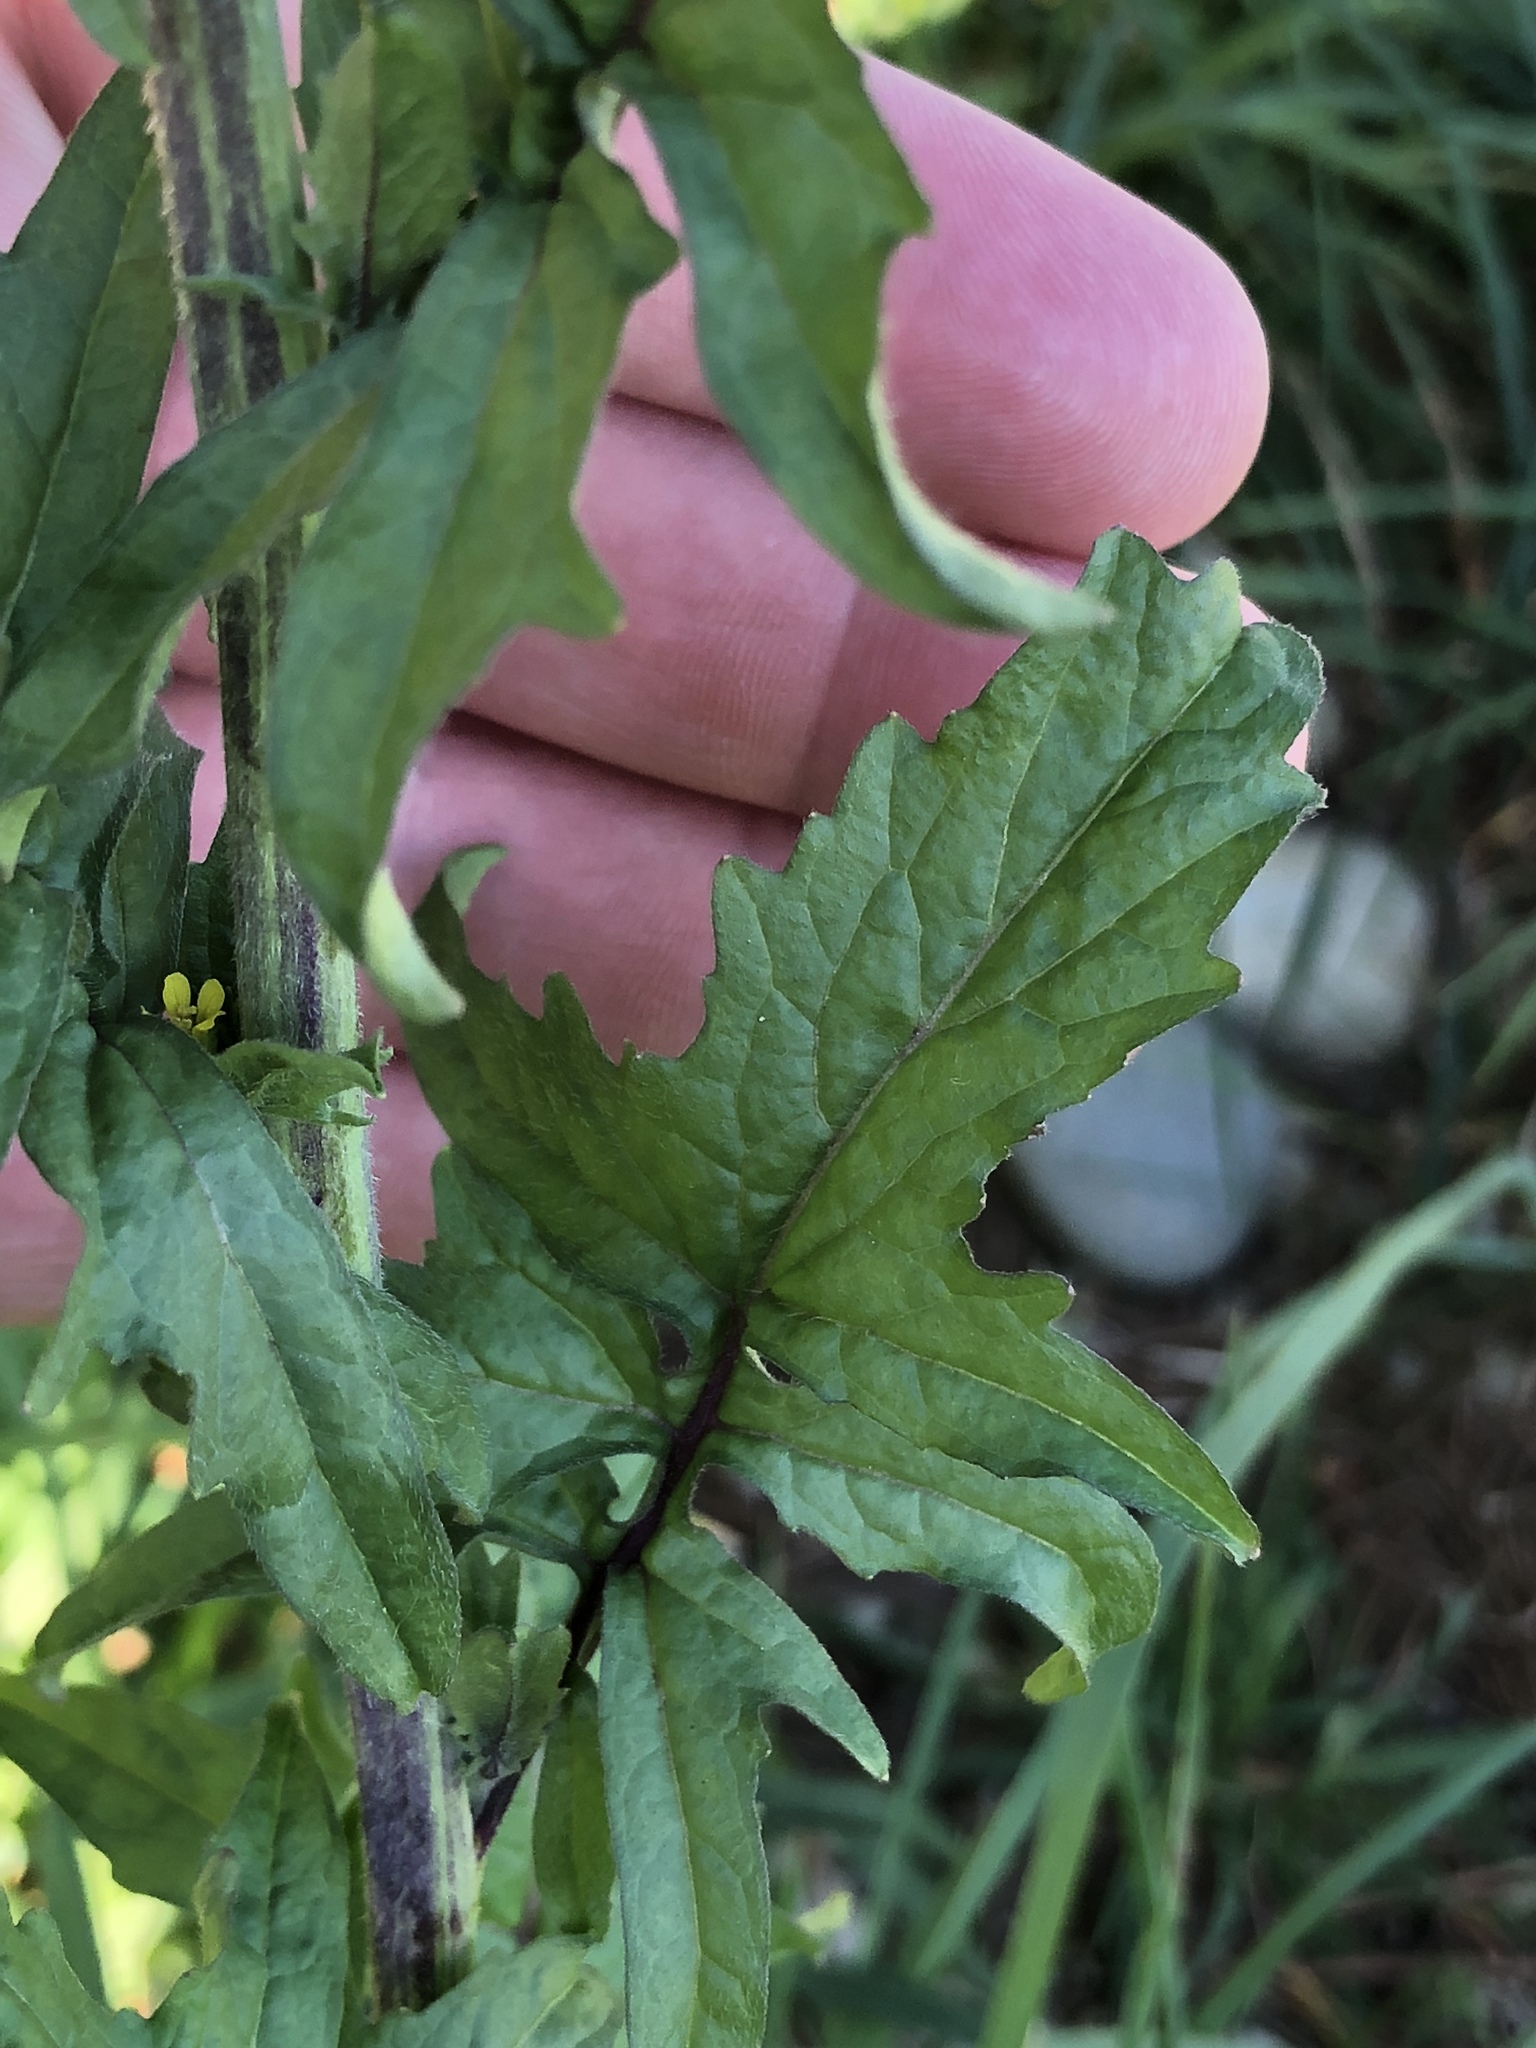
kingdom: Plantae
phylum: Tracheophyta
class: Magnoliopsida
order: Brassicales
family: Brassicaceae
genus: Sisymbrium
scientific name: Sisymbrium officinale
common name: Hedge mustard
